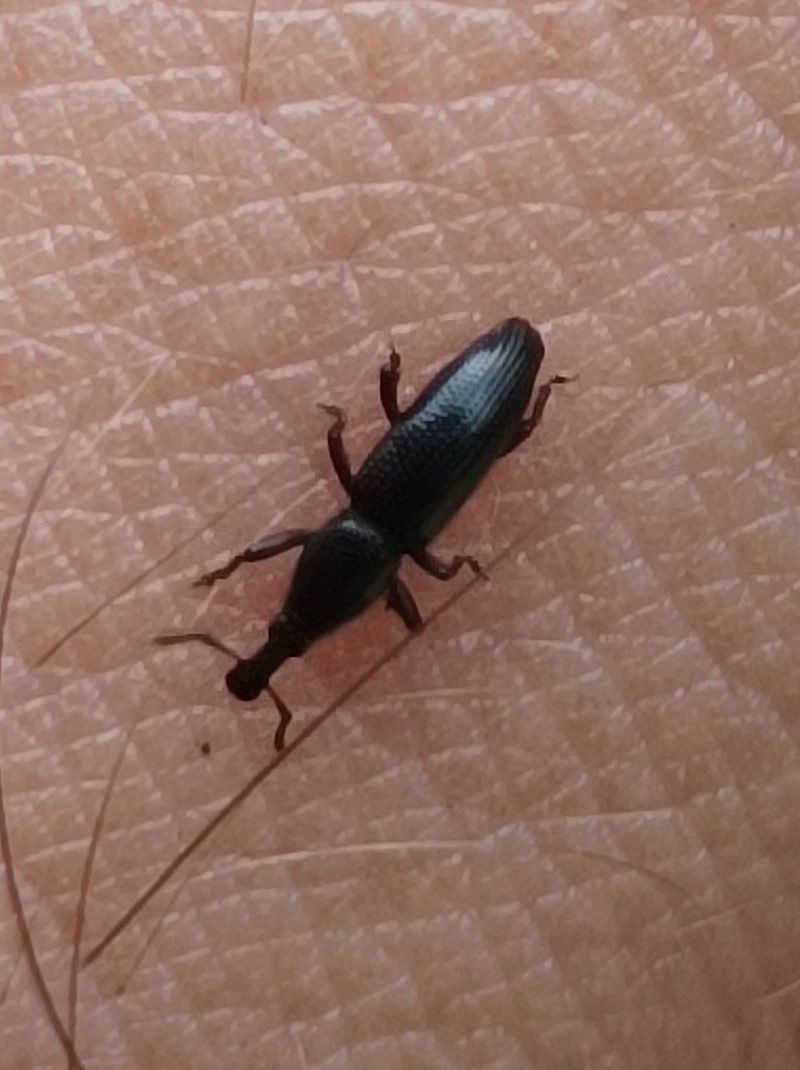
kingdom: Animalia
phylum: Arthropoda
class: Insecta
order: Coleoptera
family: Curculionidae
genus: Oxydema
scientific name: Oxydema longulum
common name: Weevil
